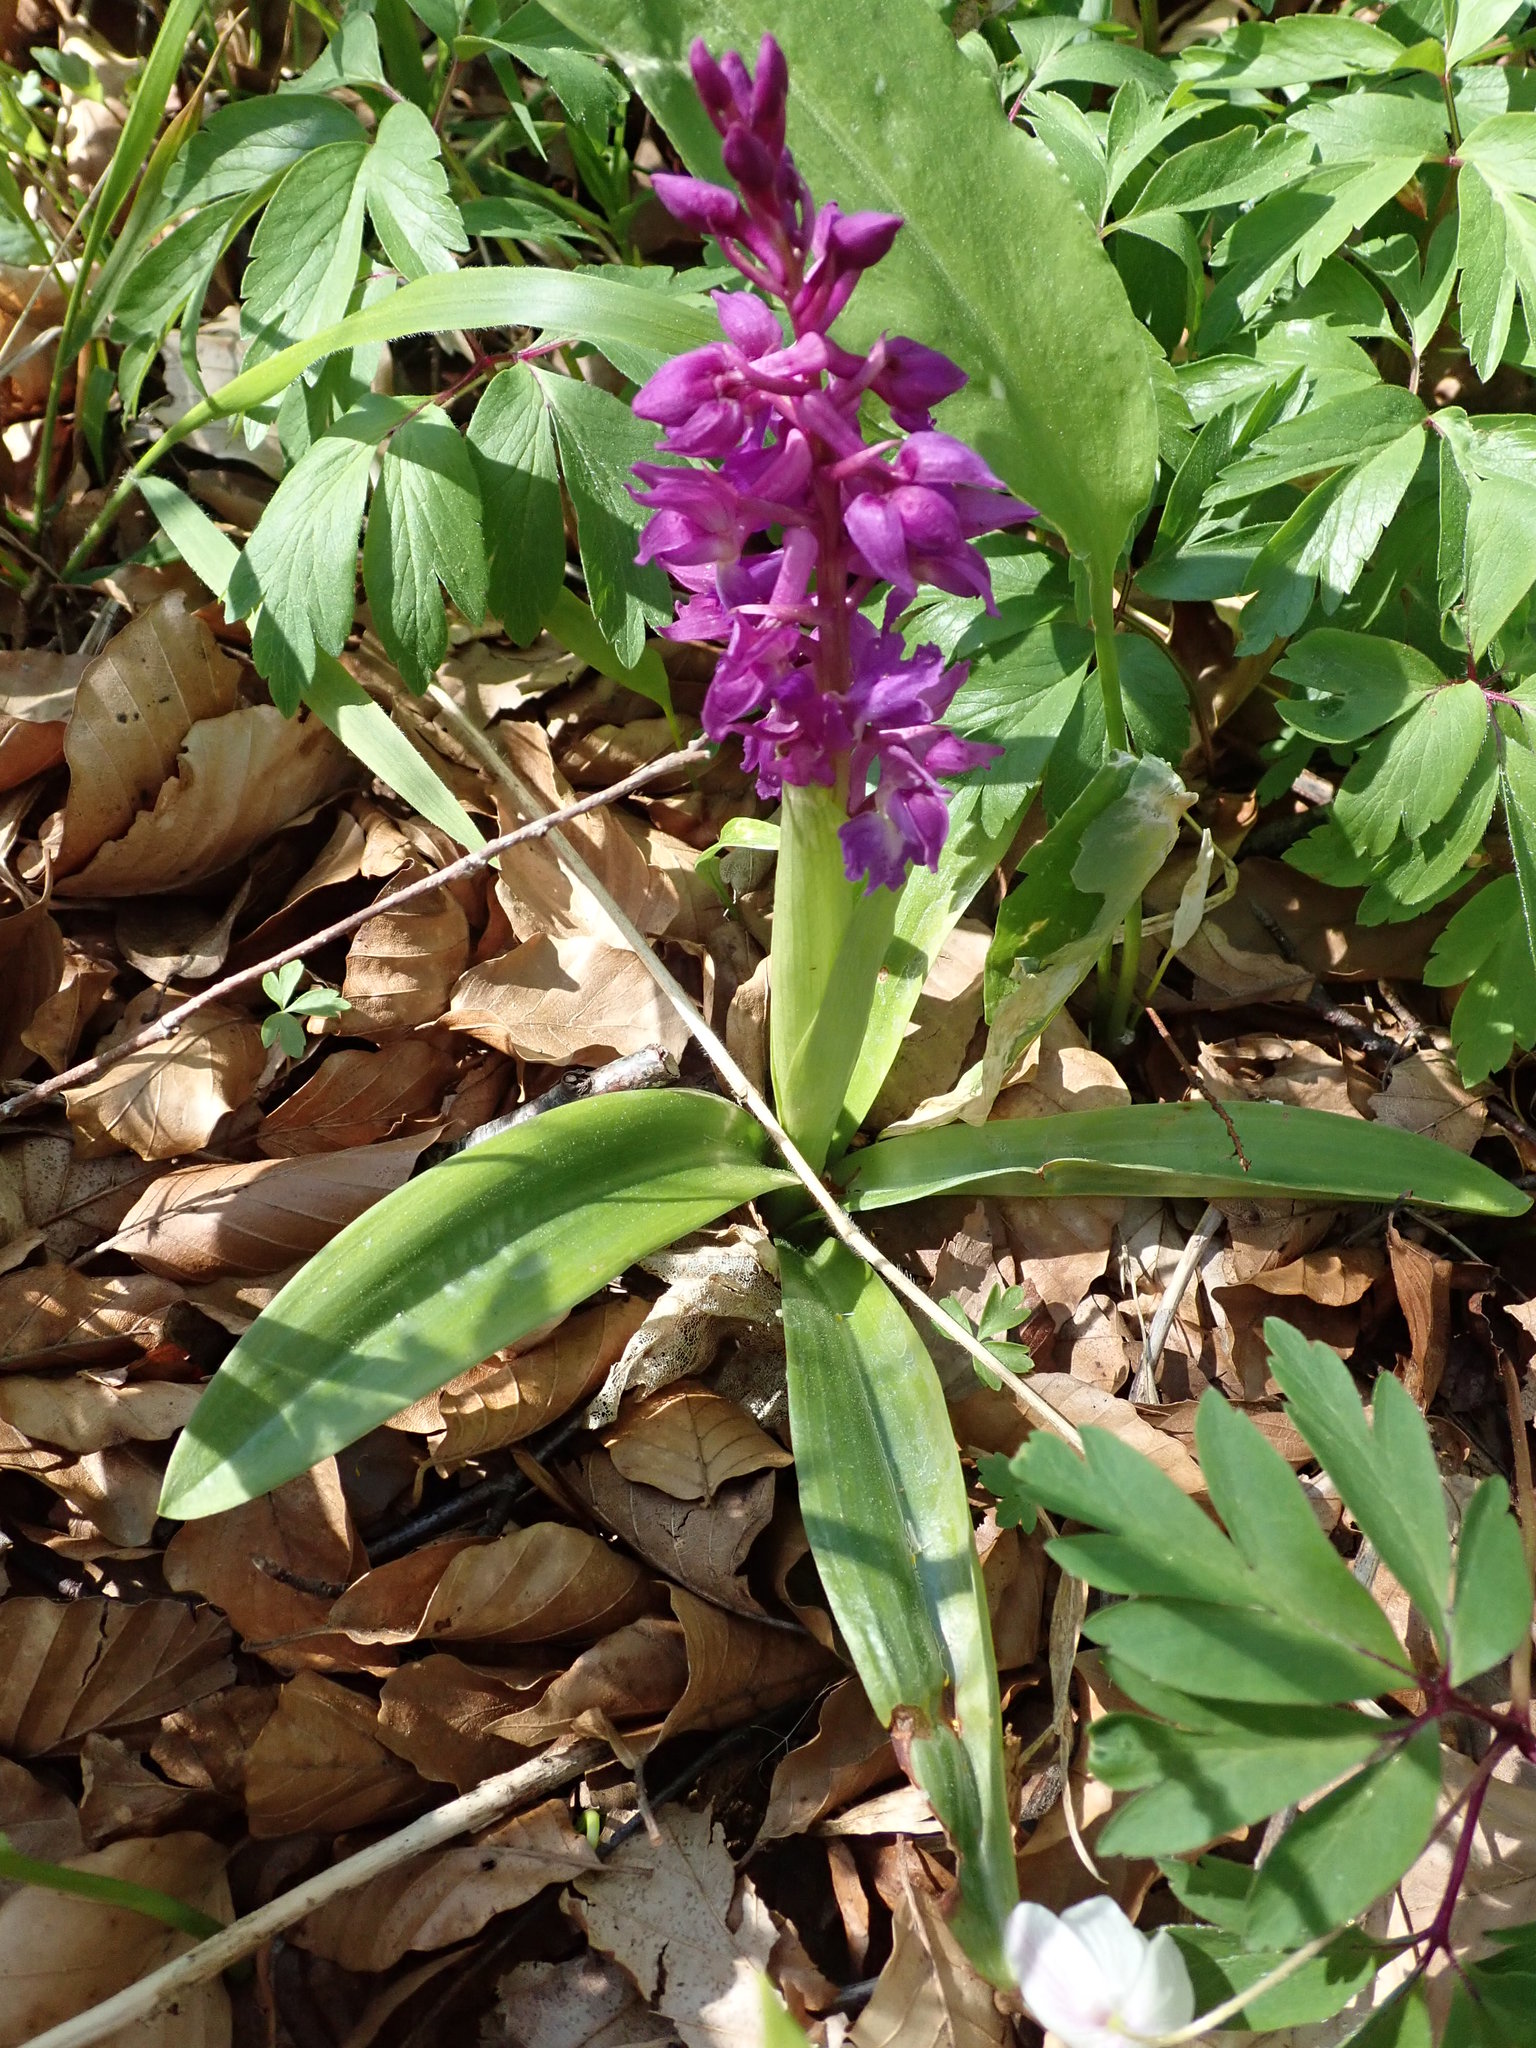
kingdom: Plantae
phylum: Tracheophyta
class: Liliopsida
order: Asparagales
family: Orchidaceae
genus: Orchis
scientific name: Orchis mascula
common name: Early-purple orchid
